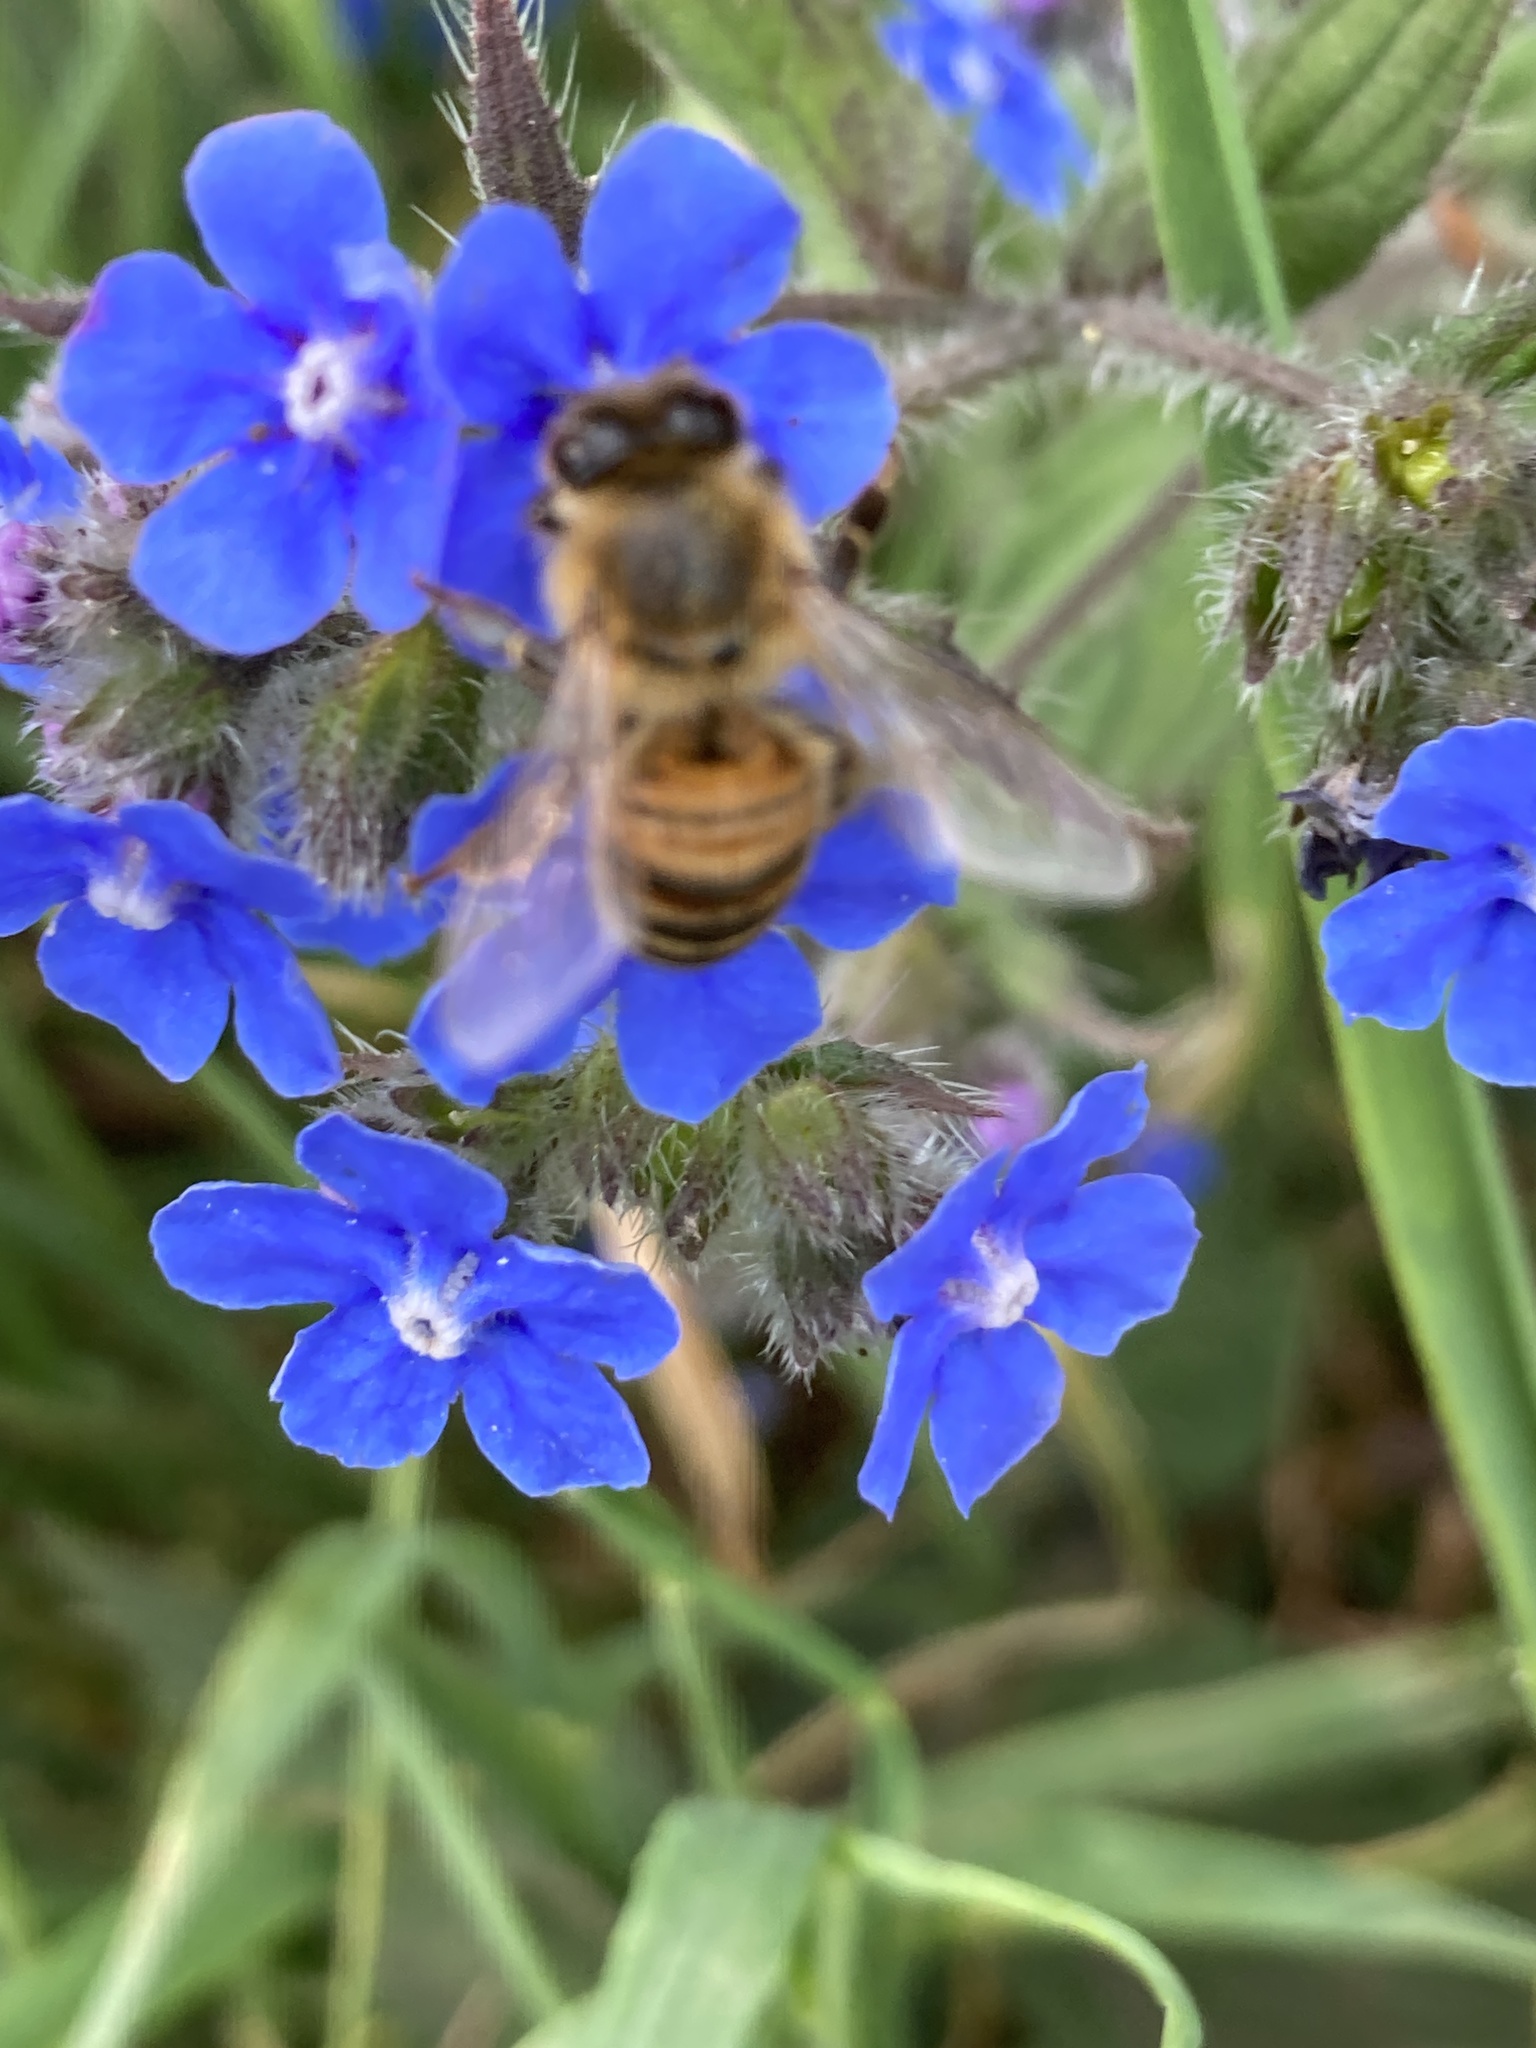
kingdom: Animalia
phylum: Arthropoda
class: Insecta
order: Hymenoptera
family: Apidae
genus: Apis
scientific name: Apis mellifera
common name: Honey bee
